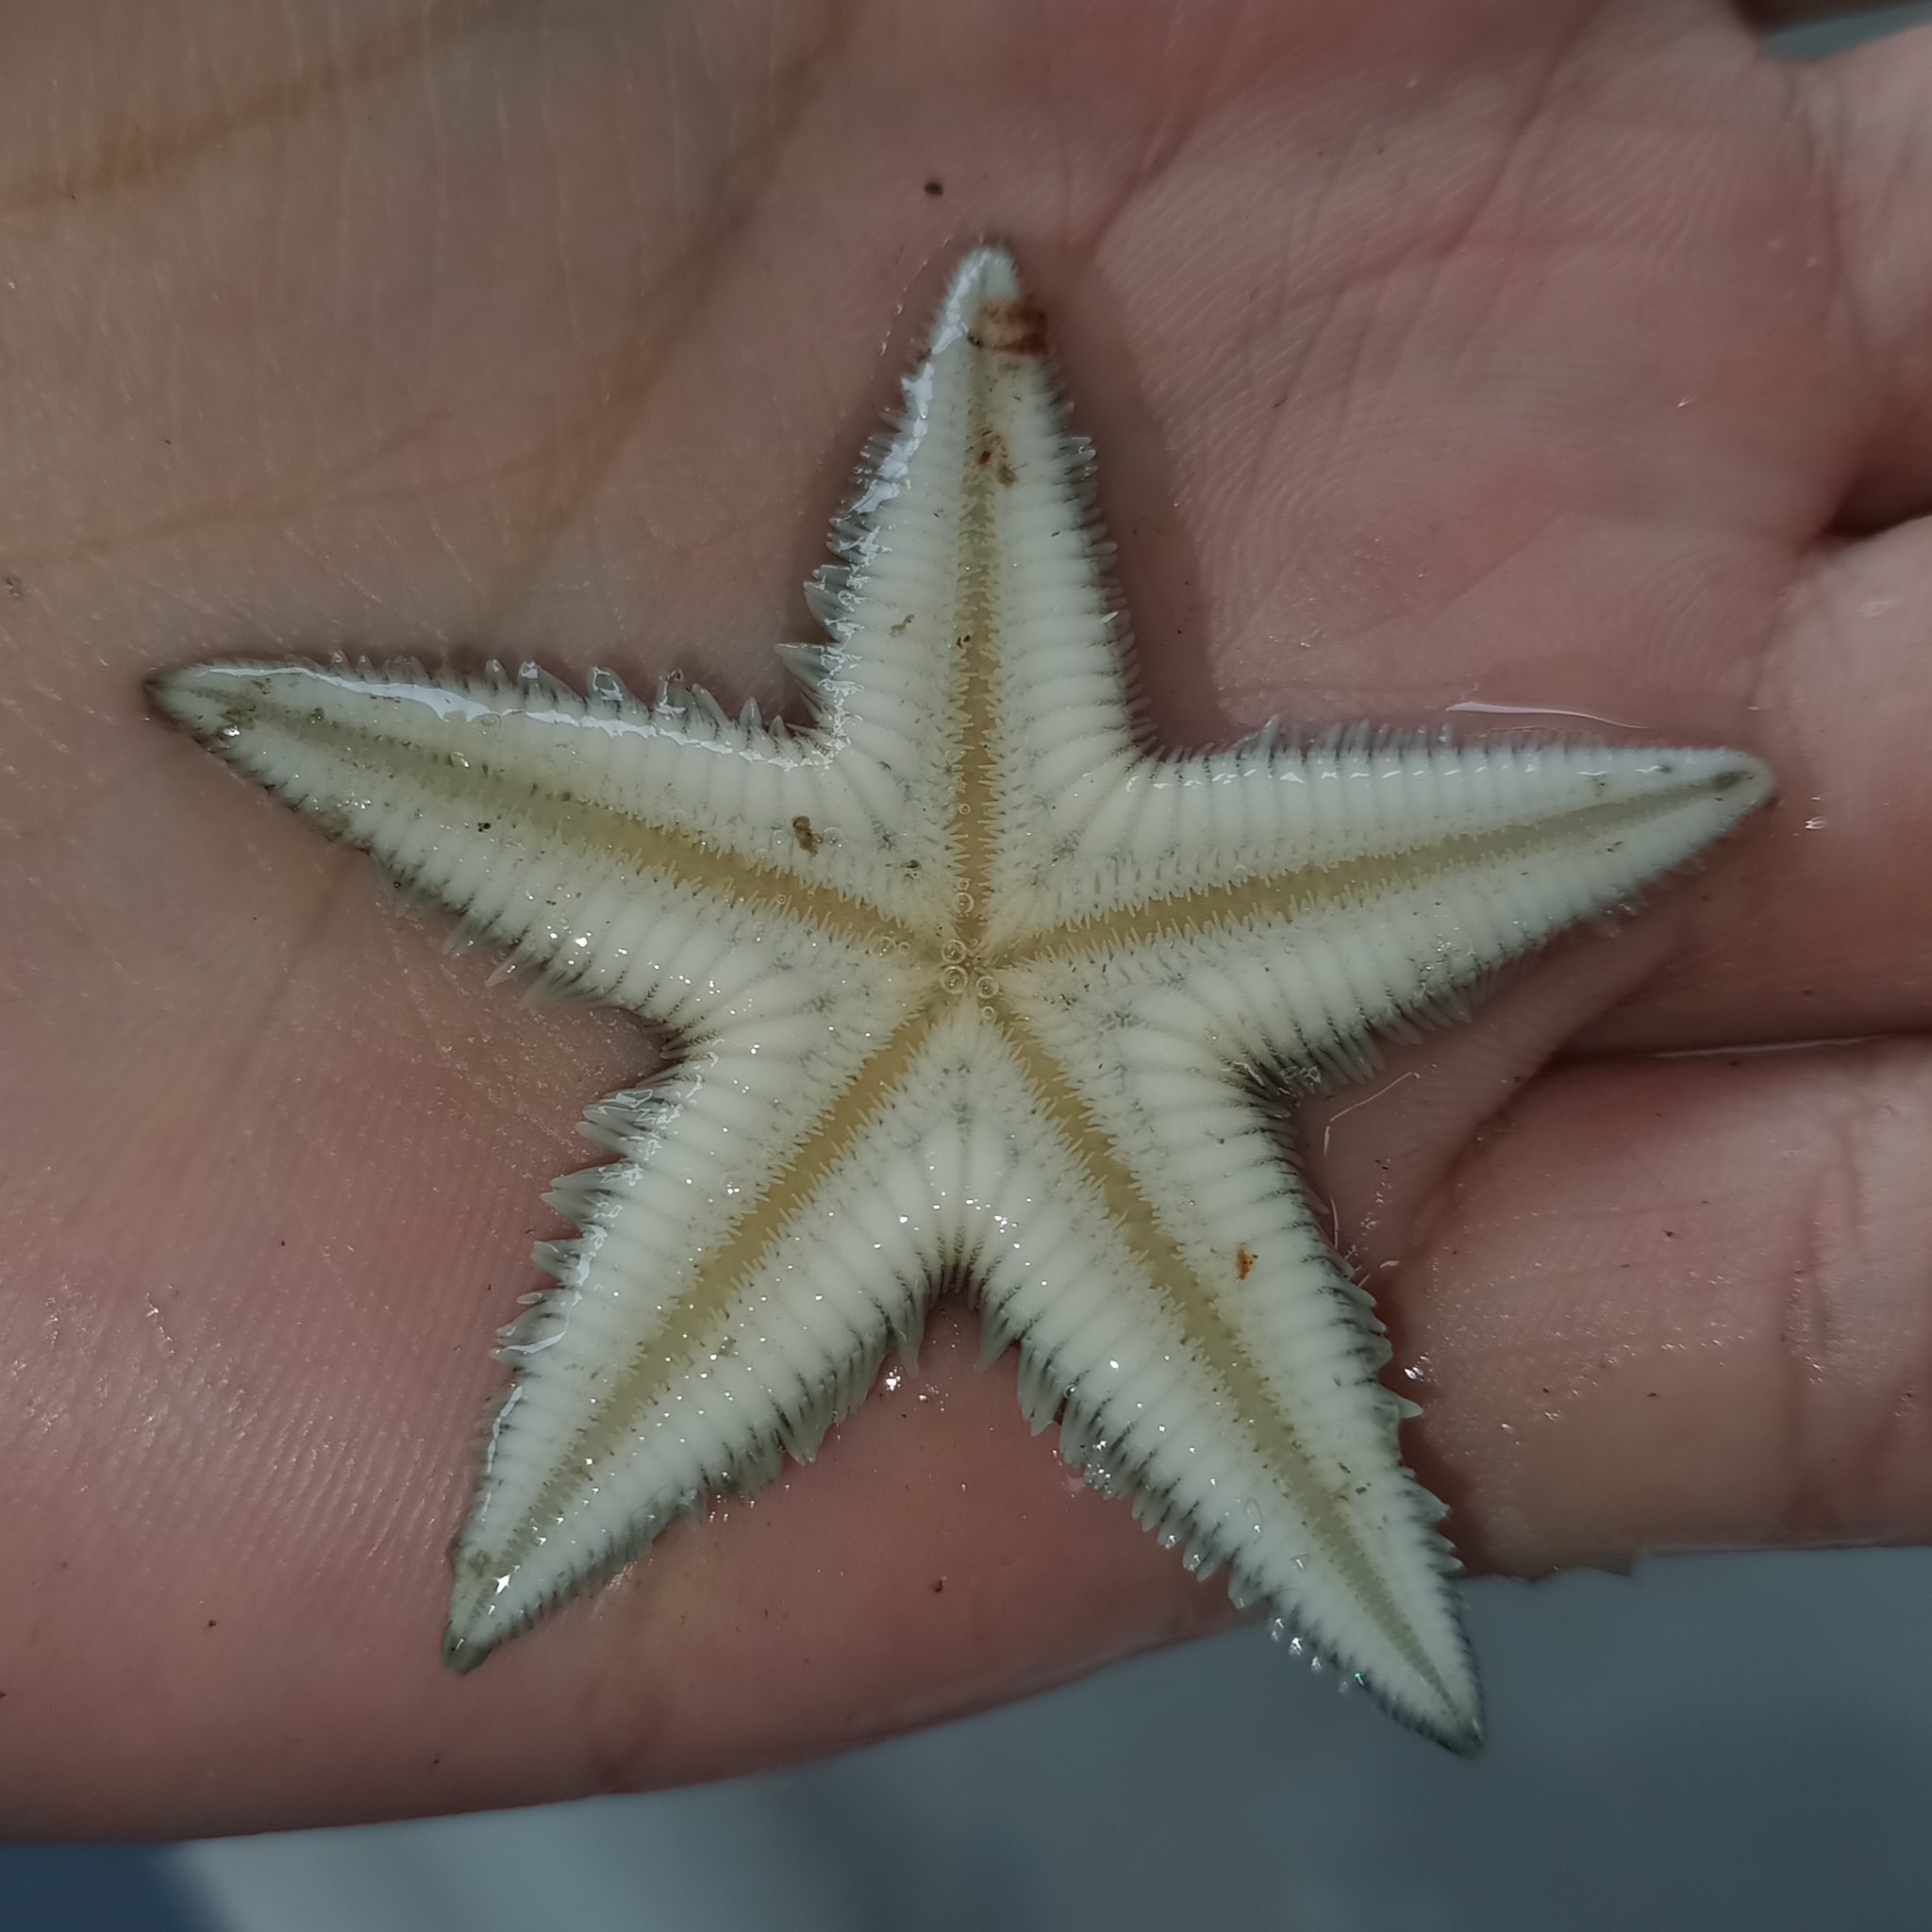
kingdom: Animalia
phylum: Echinodermata
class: Asteroidea
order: Paxillosida
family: Astropectinidae
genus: Astropecten
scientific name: Astropecten marginatus
